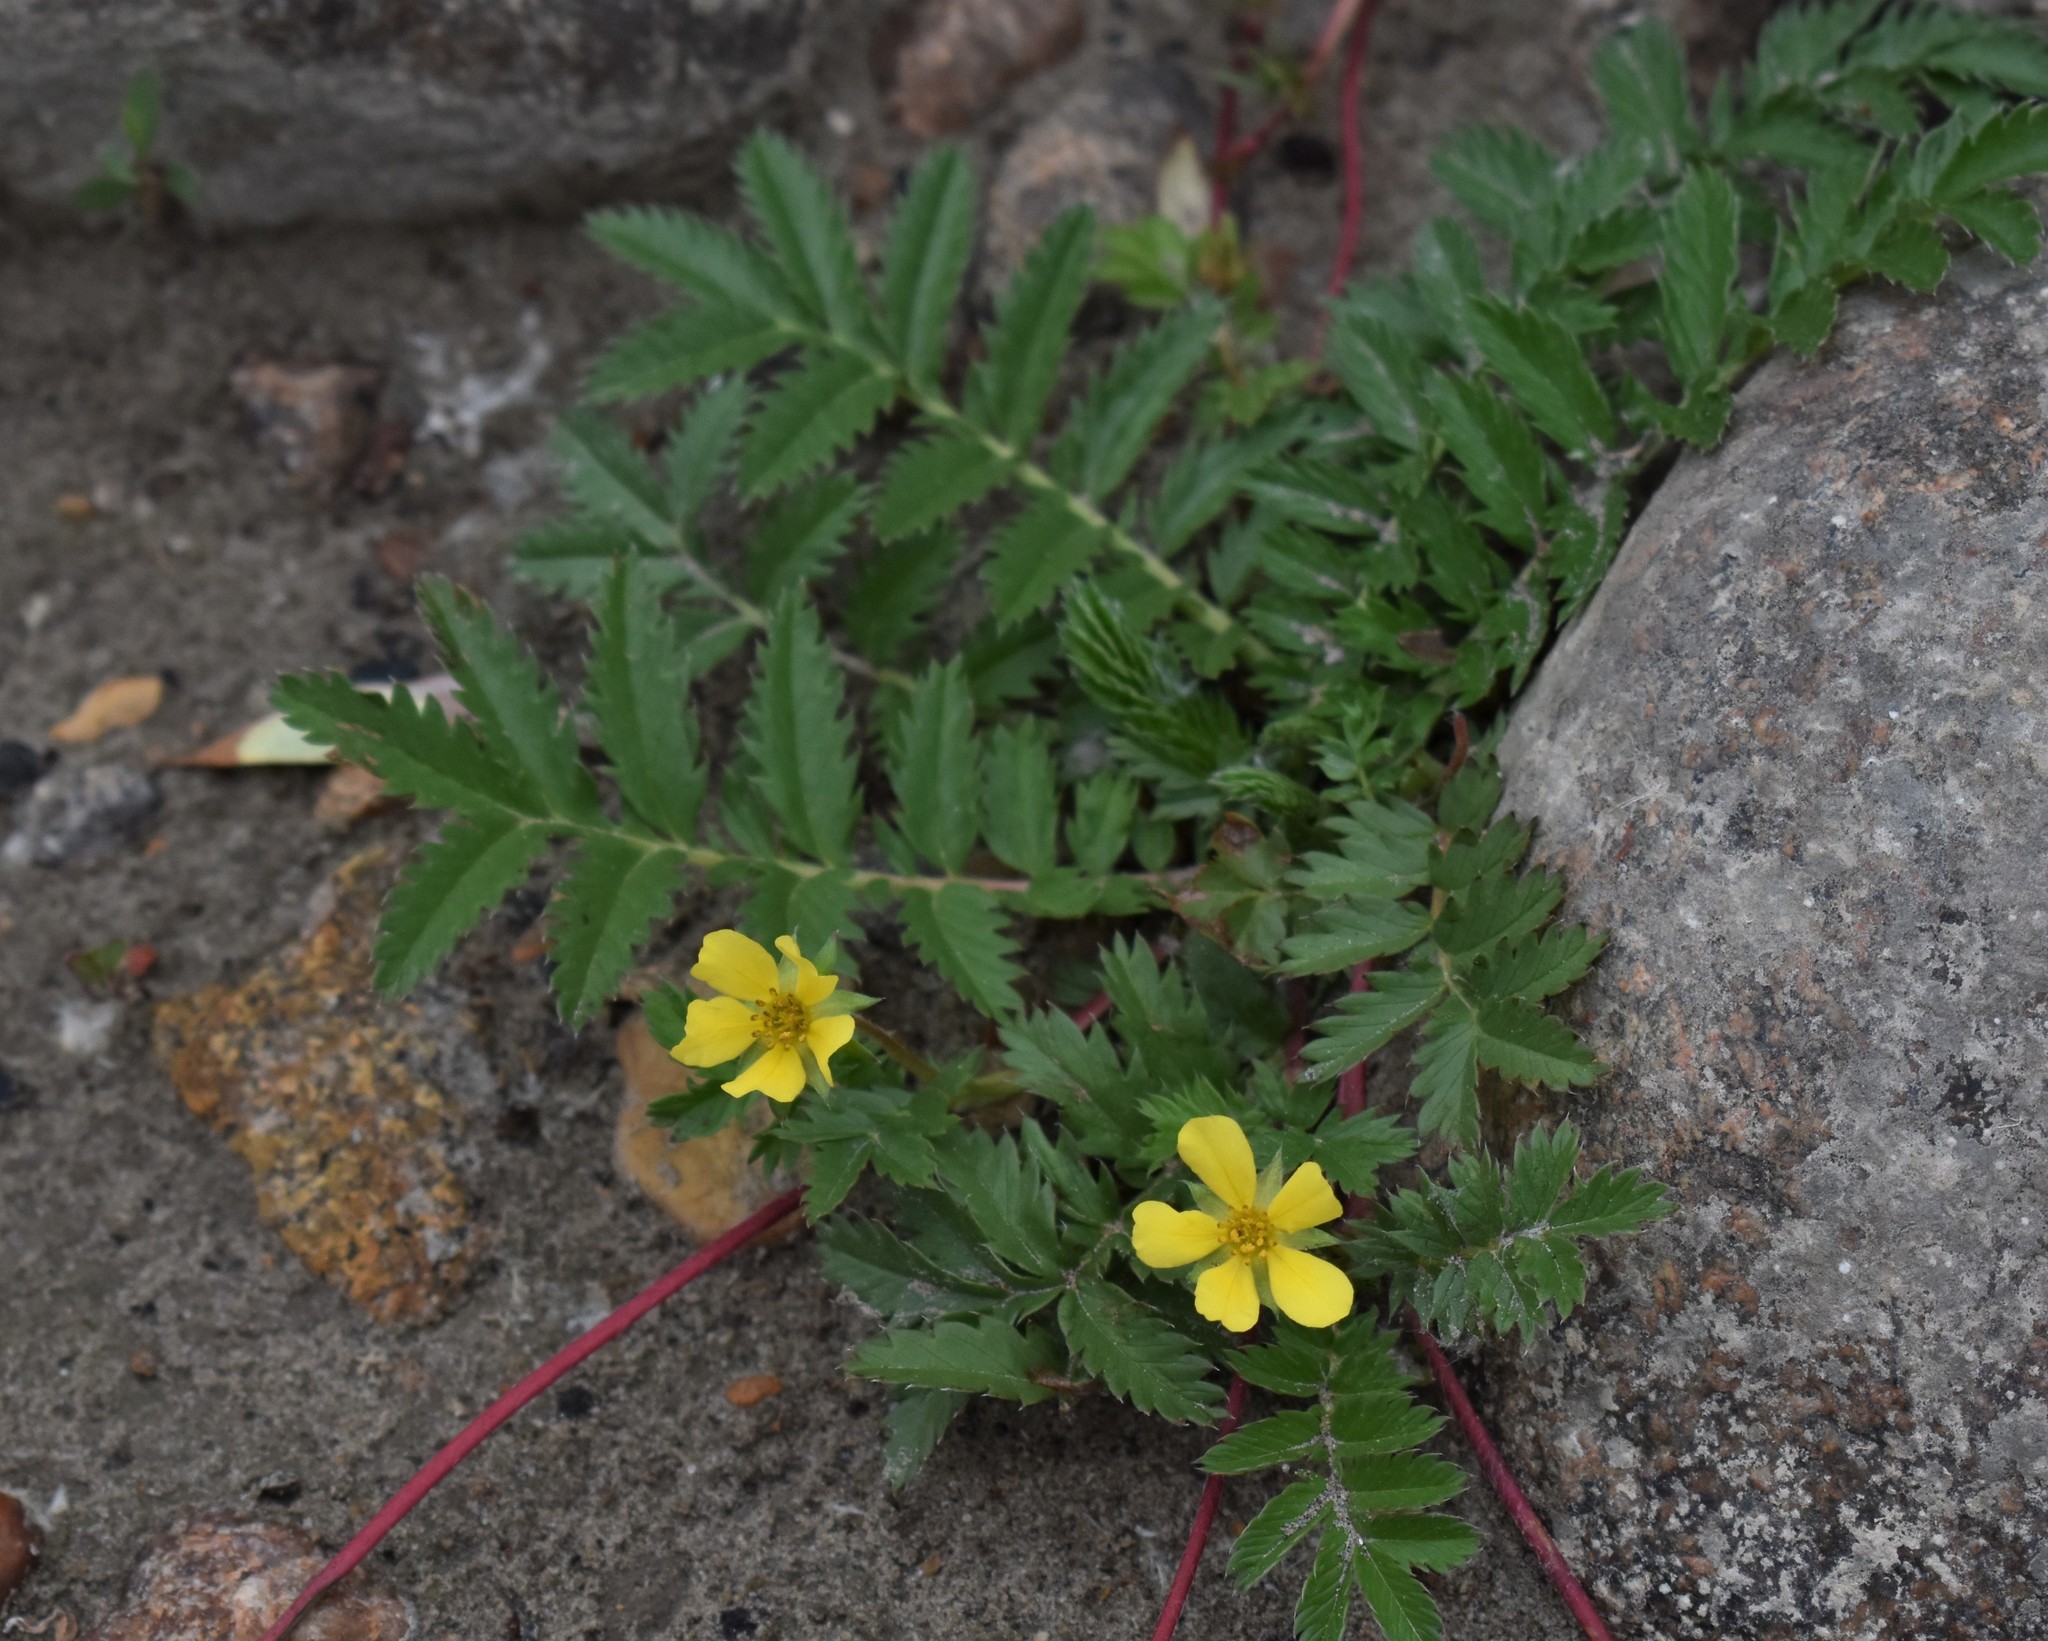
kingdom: Plantae
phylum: Tracheophyta
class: Magnoliopsida
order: Rosales
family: Rosaceae
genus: Argentina
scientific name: Argentina anserina
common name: Common silverweed
